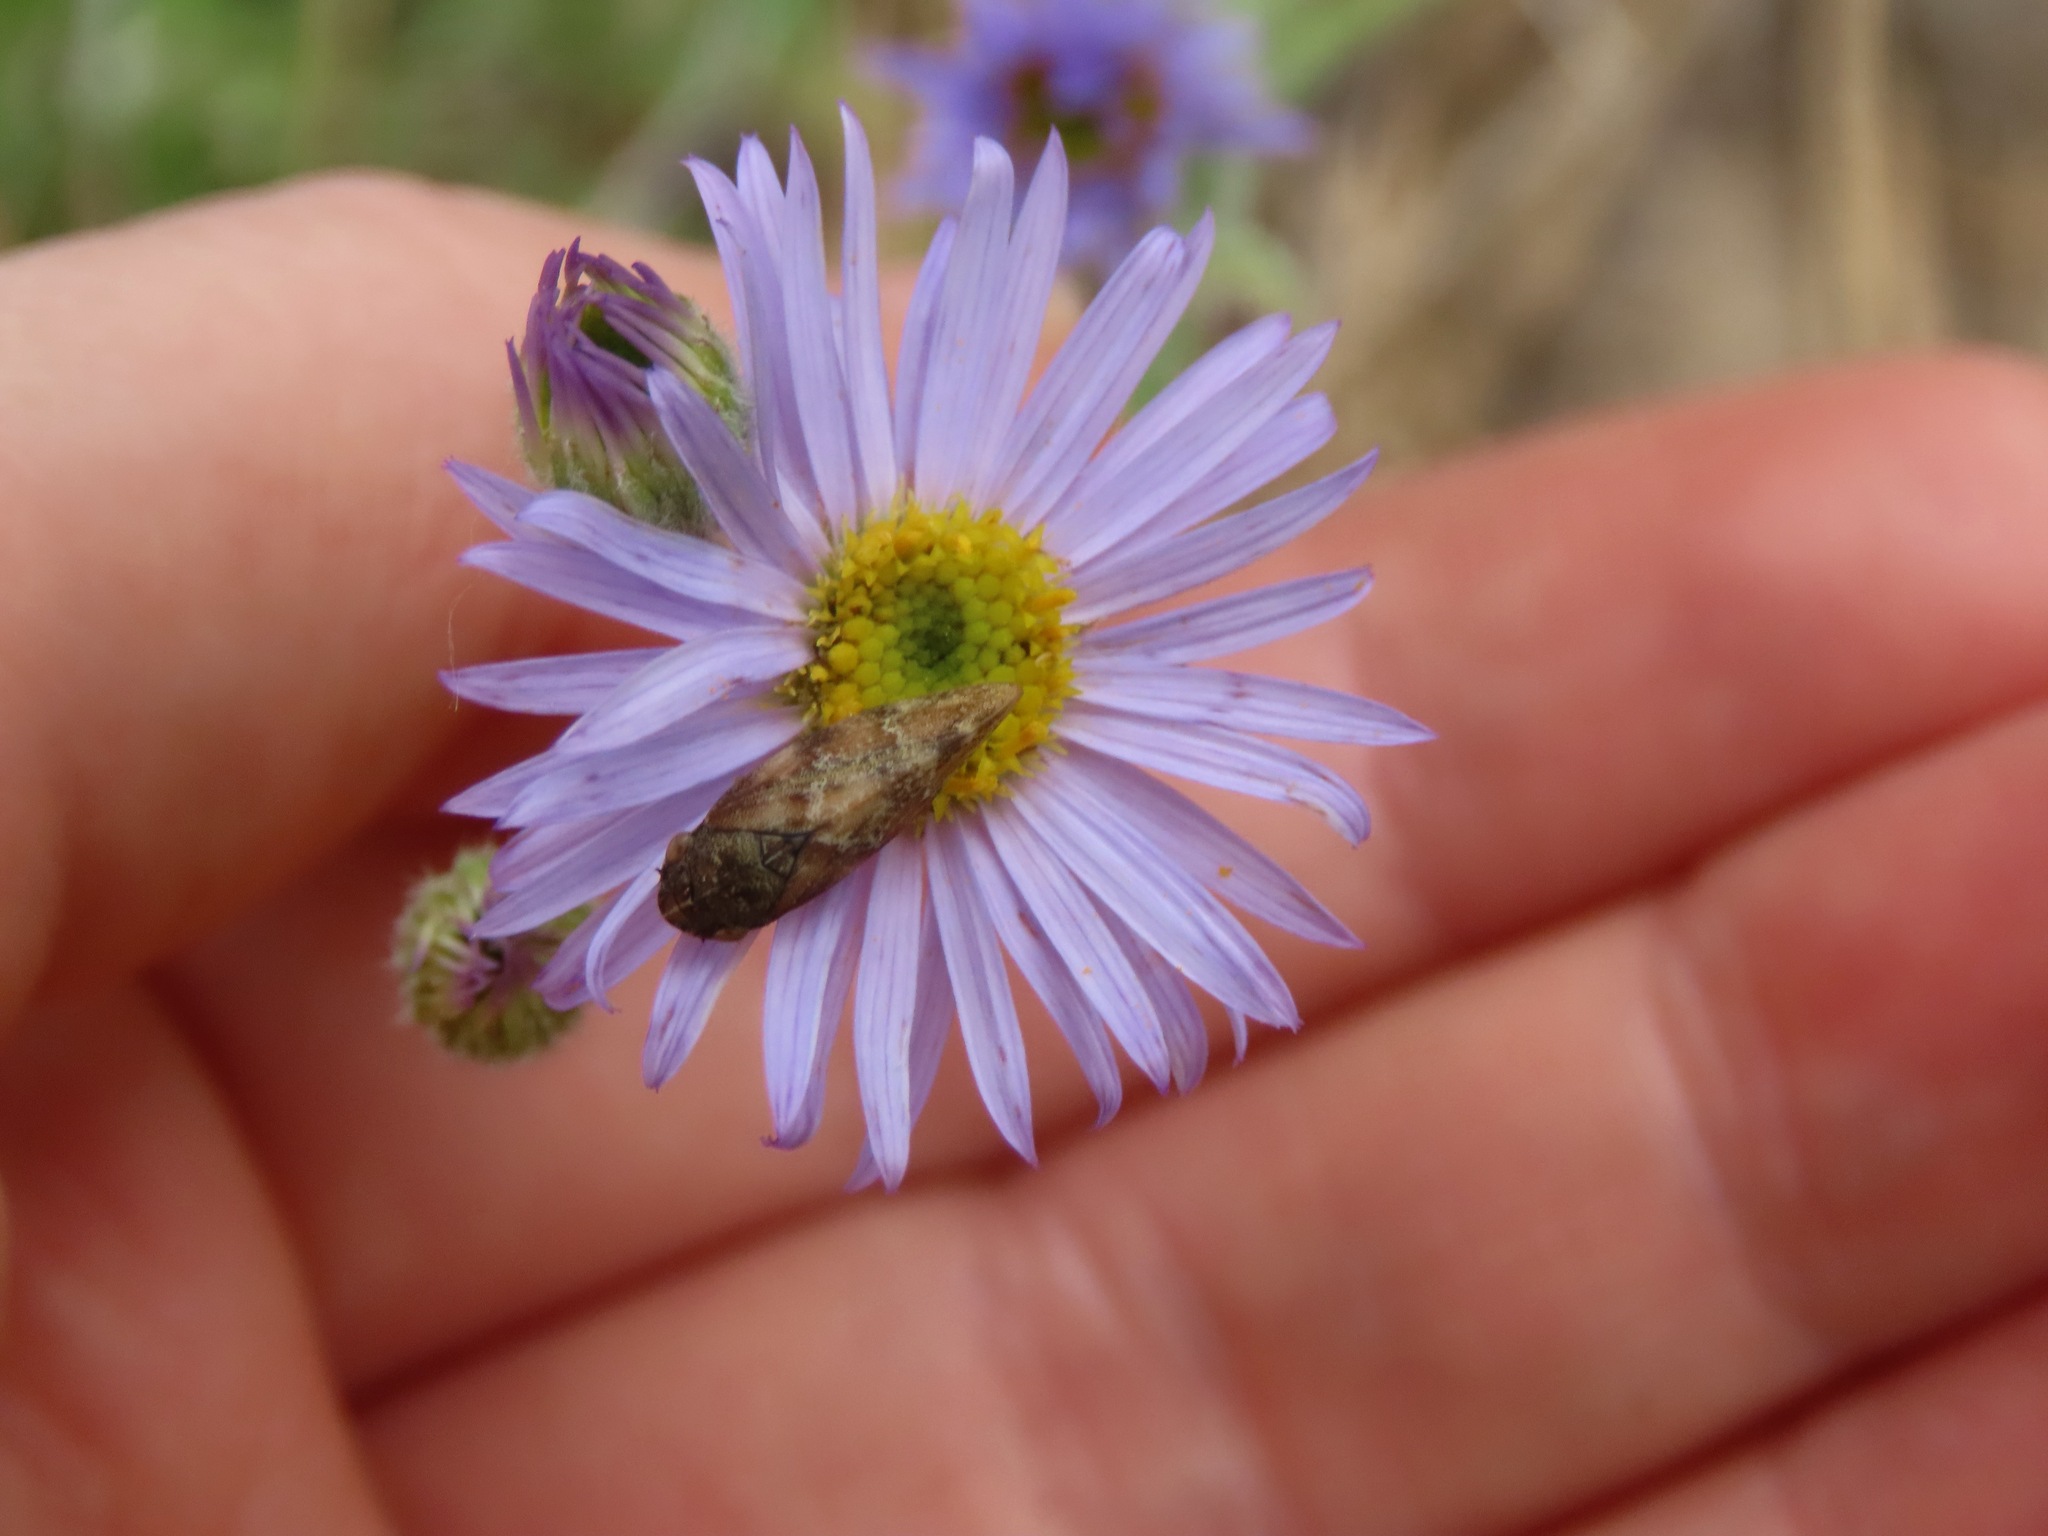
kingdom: Animalia
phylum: Arthropoda
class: Insecta
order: Hemiptera
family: Aphrophoridae
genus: Philaenus
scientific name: Philaenus spumarius
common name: Meadow spittlebug
